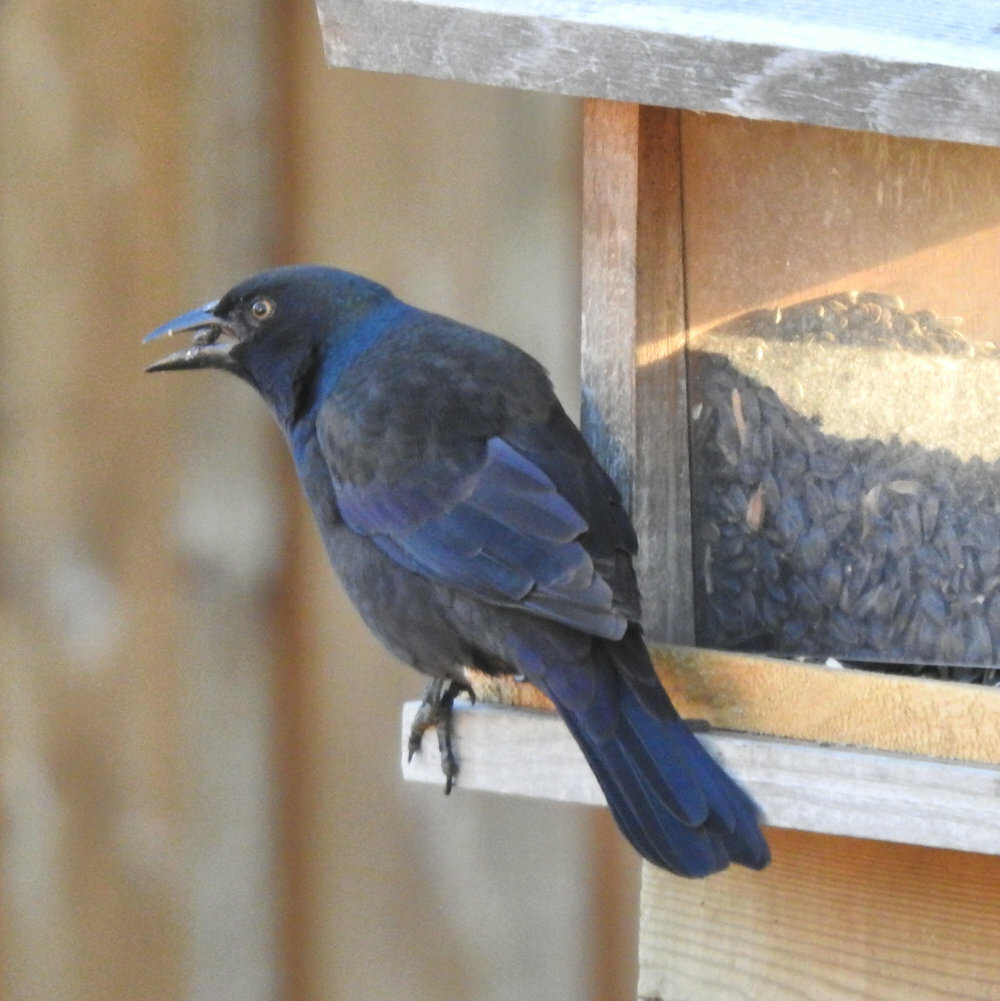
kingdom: Animalia
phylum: Chordata
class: Aves
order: Passeriformes
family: Icteridae
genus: Quiscalus
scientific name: Quiscalus quiscula
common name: Common grackle
